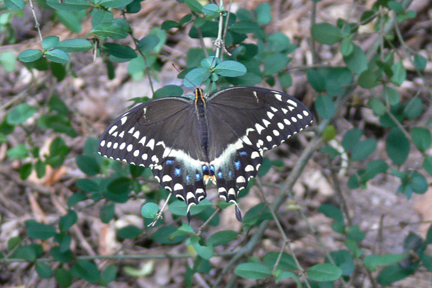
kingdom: Animalia
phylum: Arthropoda
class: Insecta
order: Lepidoptera
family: Papilionidae
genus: Papilio
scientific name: Papilio palamedes
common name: Palamedes swallowtail
